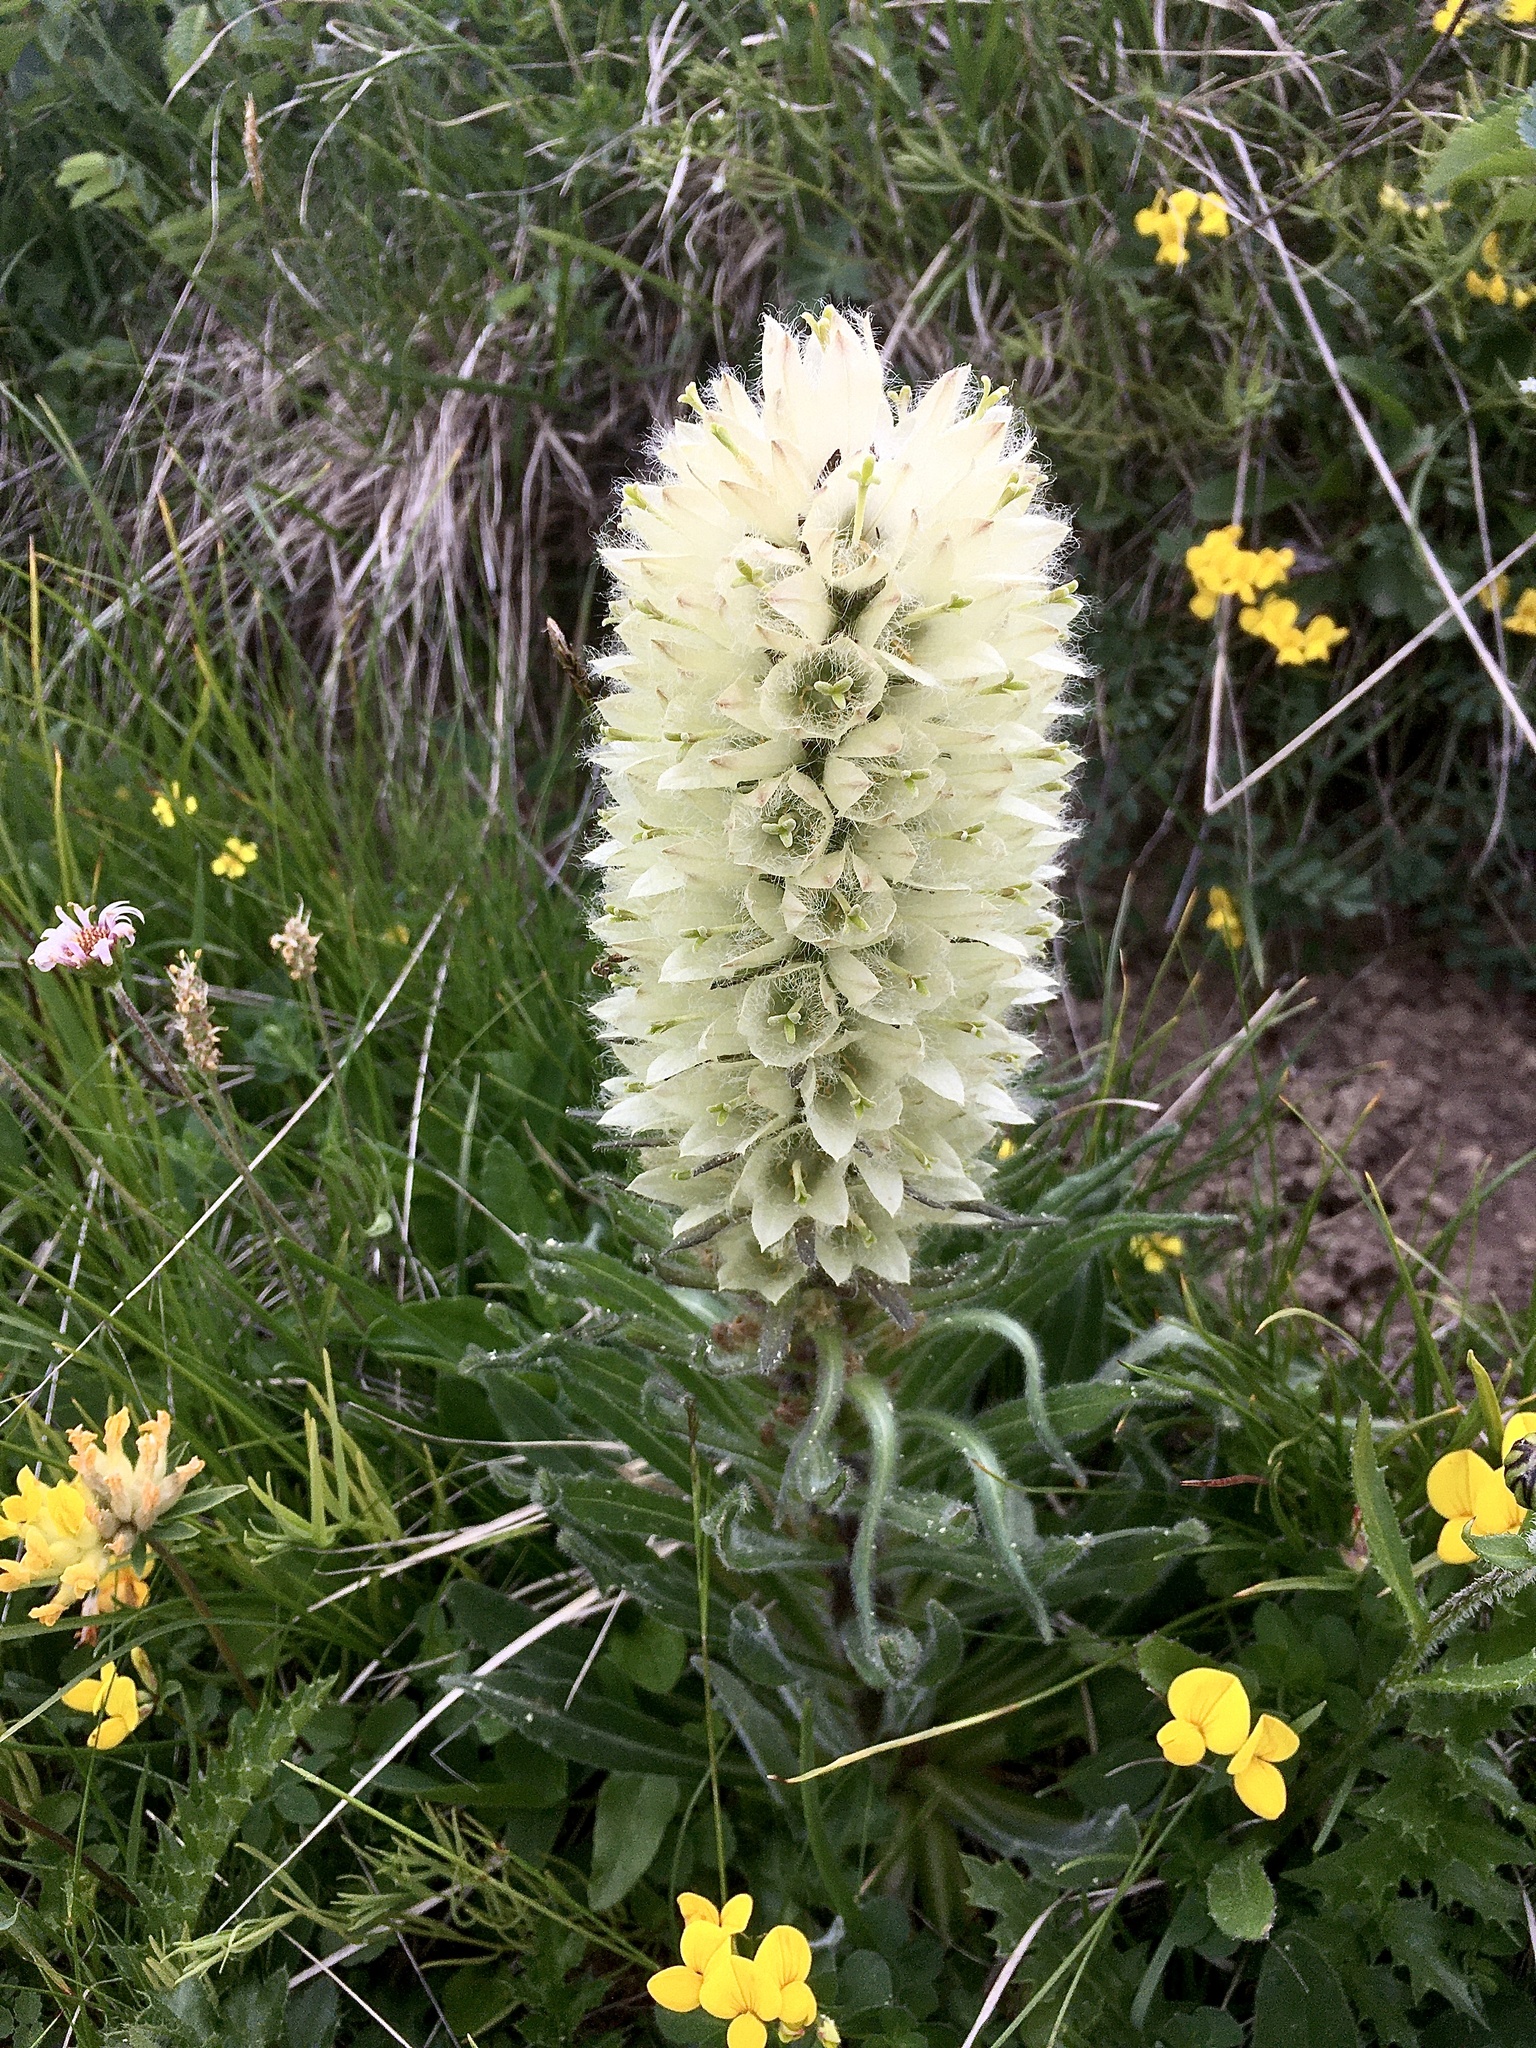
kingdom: Plantae
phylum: Tracheophyta
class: Magnoliopsida
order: Asterales
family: Campanulaceae
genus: Campanula
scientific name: Campanula thyrsoides
